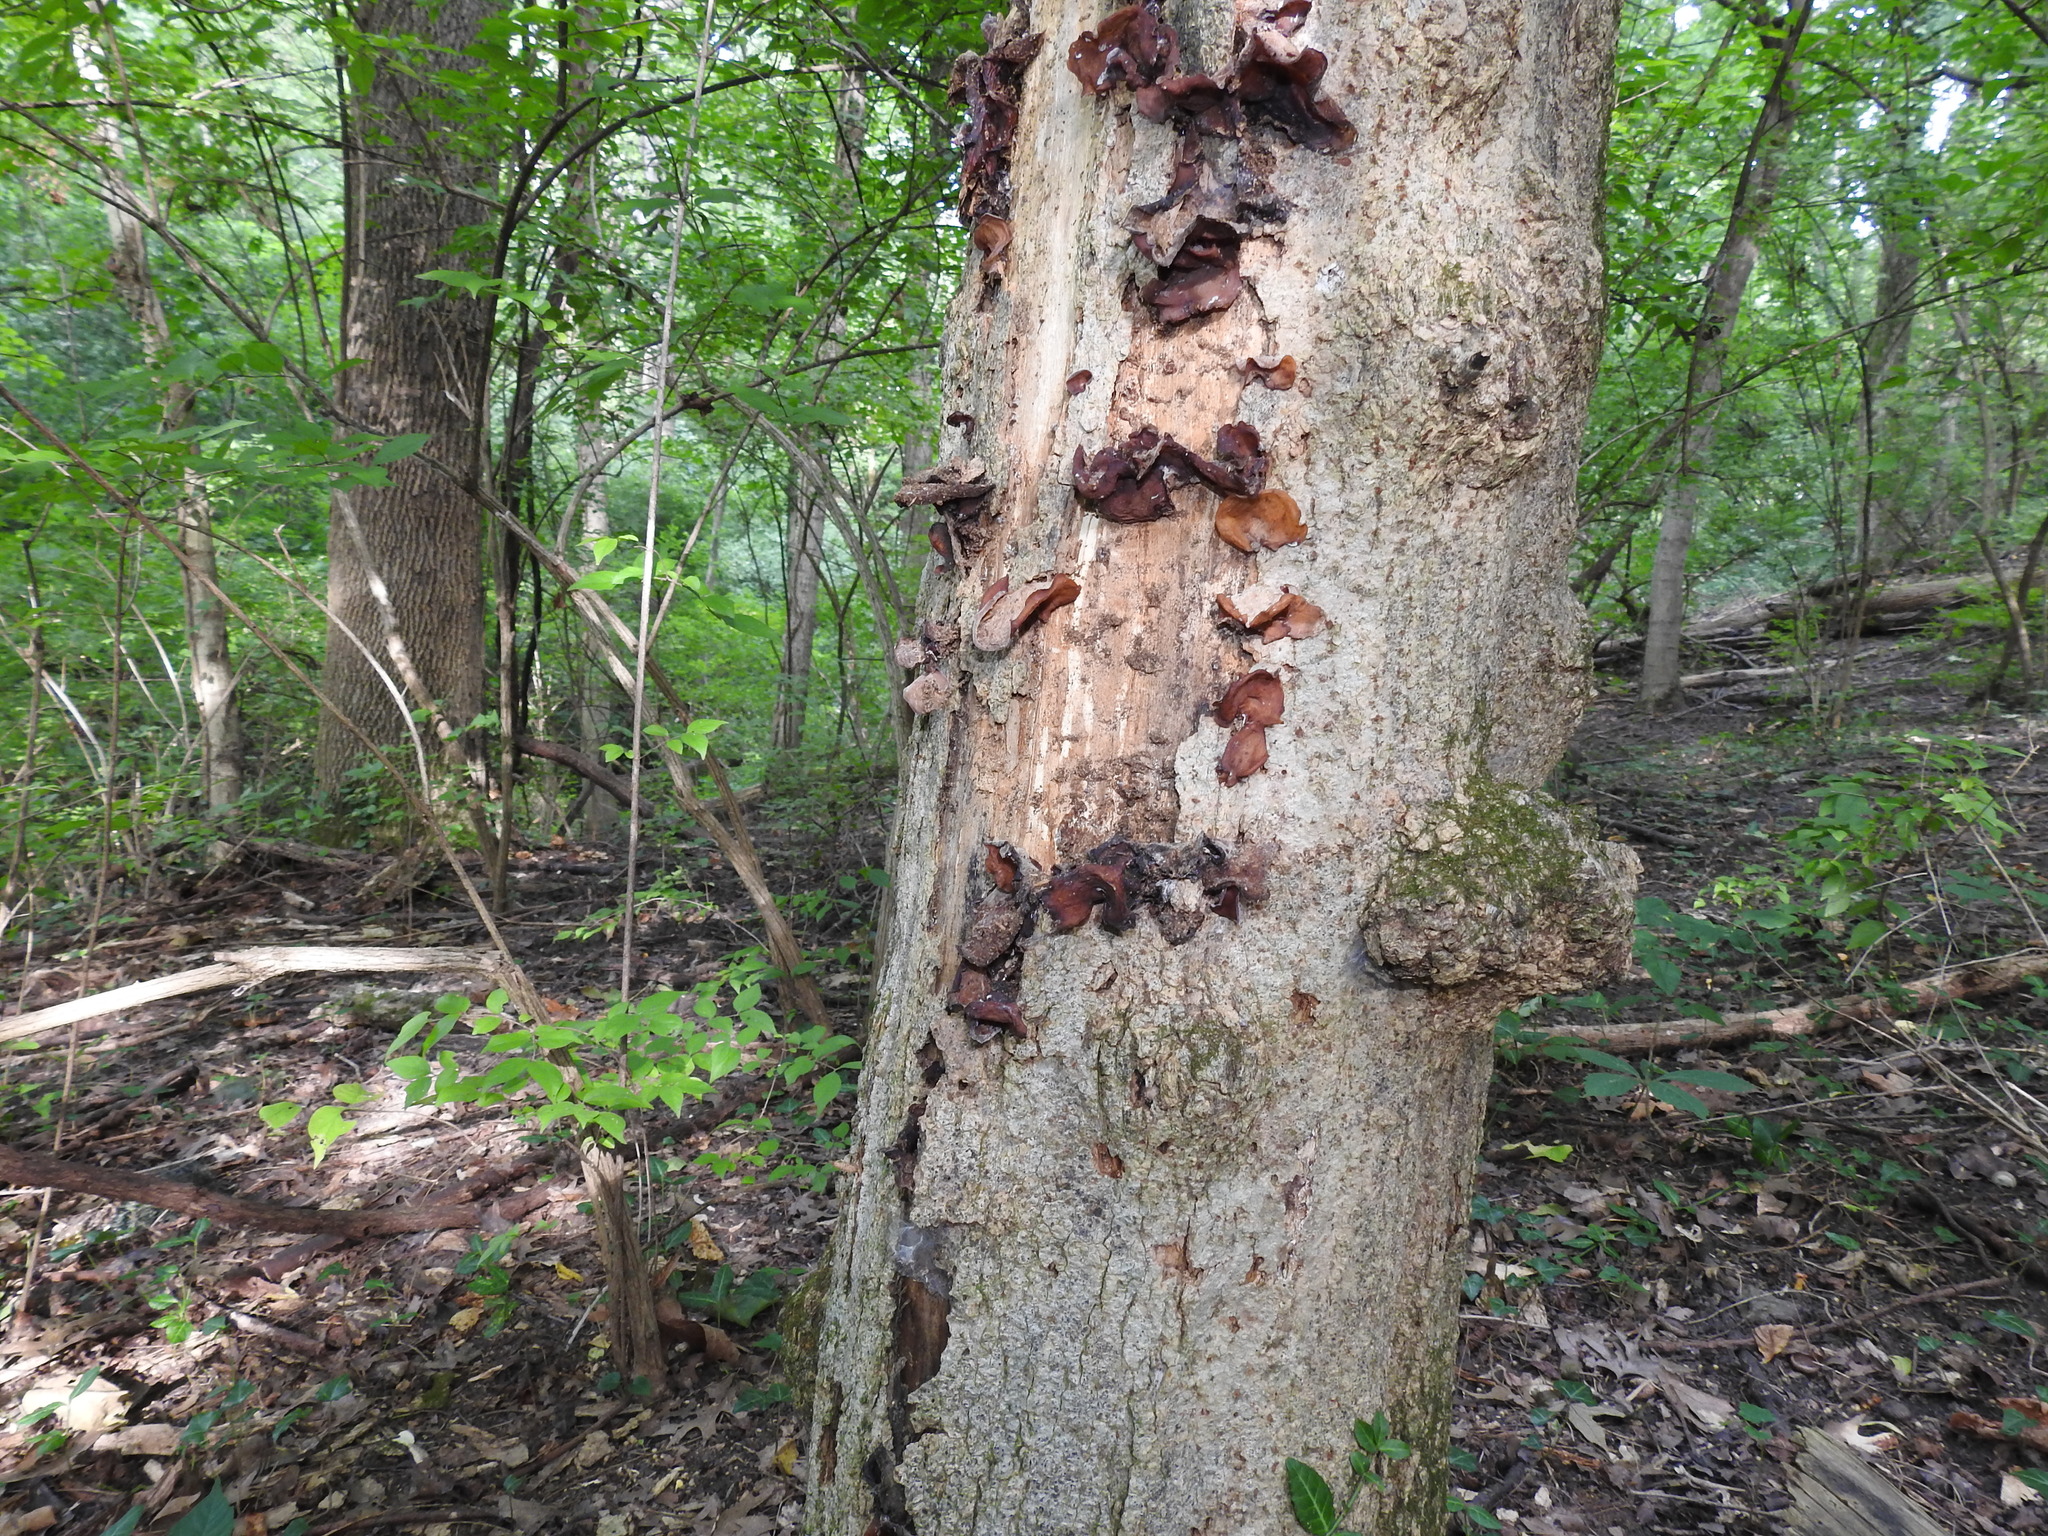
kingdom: Fungi
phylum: Basidiomycota
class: Agaricomycetes
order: Auriculariales
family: Auriculariaceae
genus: Auricularia
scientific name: Auricularia angiospermarum
